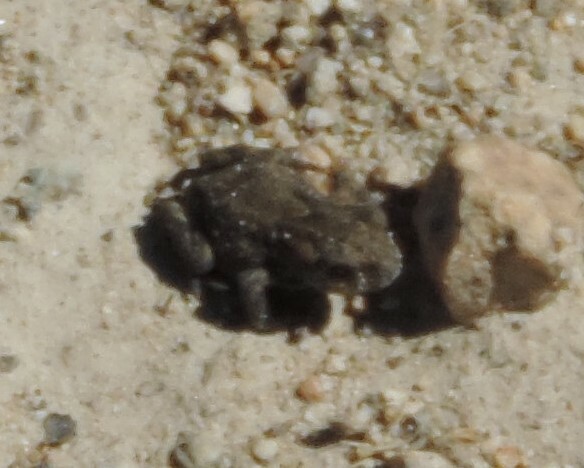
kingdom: Animalia
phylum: Chordata
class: Amphibia
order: Anura
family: Bufonidae
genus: Anaxyrus
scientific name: Anaxyrus boreas
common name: Western toad
